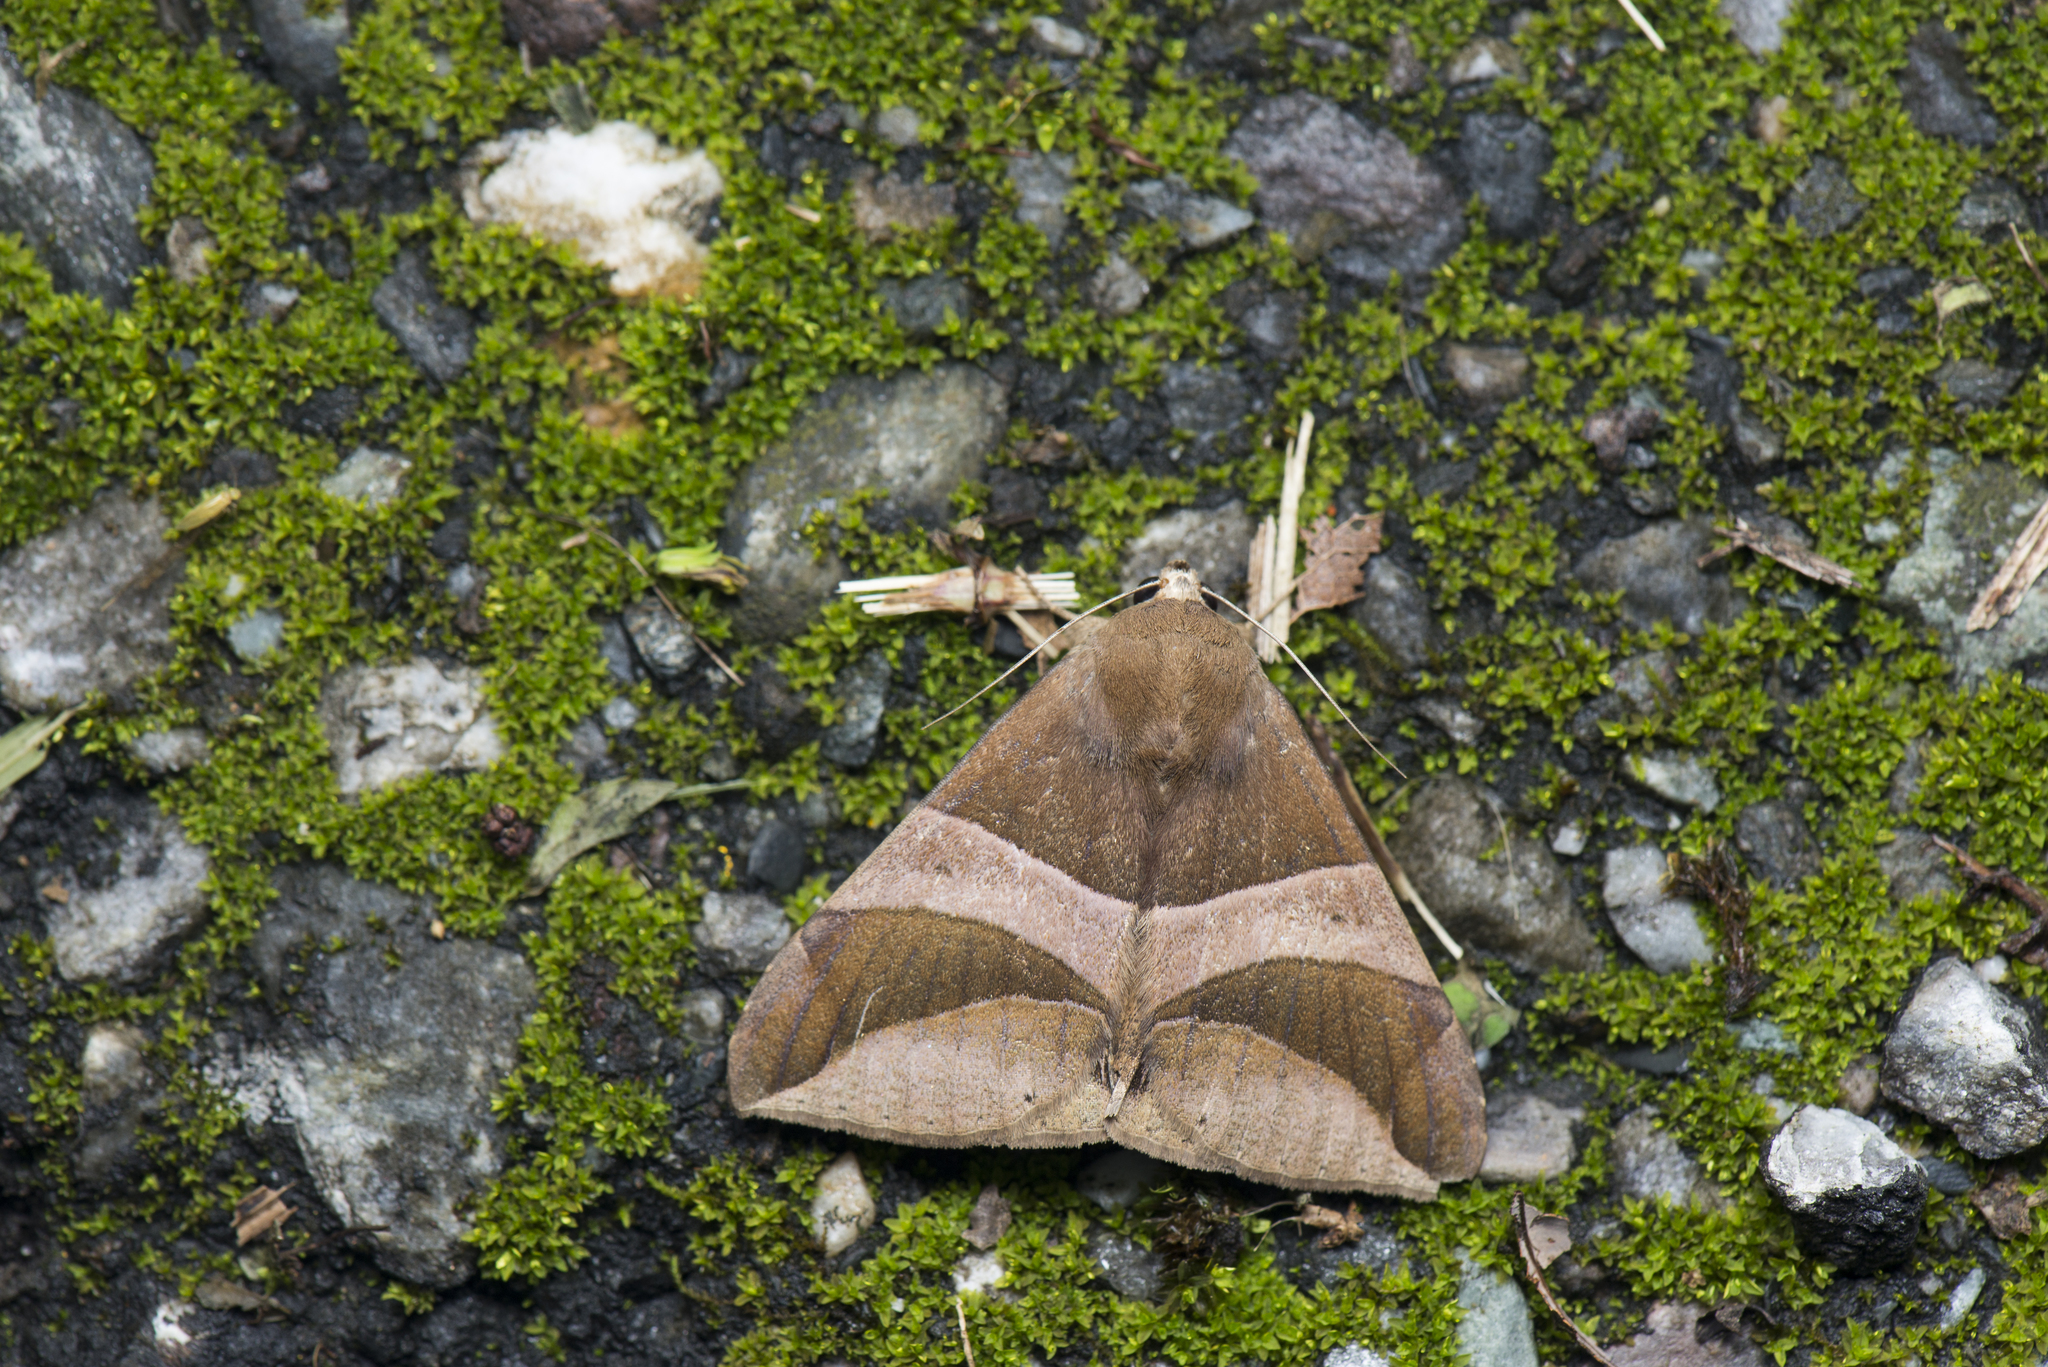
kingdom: Animalia
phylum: Arthropoda
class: Insecta
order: Lepidoptera
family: Erebidae
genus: Bastilla
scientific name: Bastilla fulvotaenia
